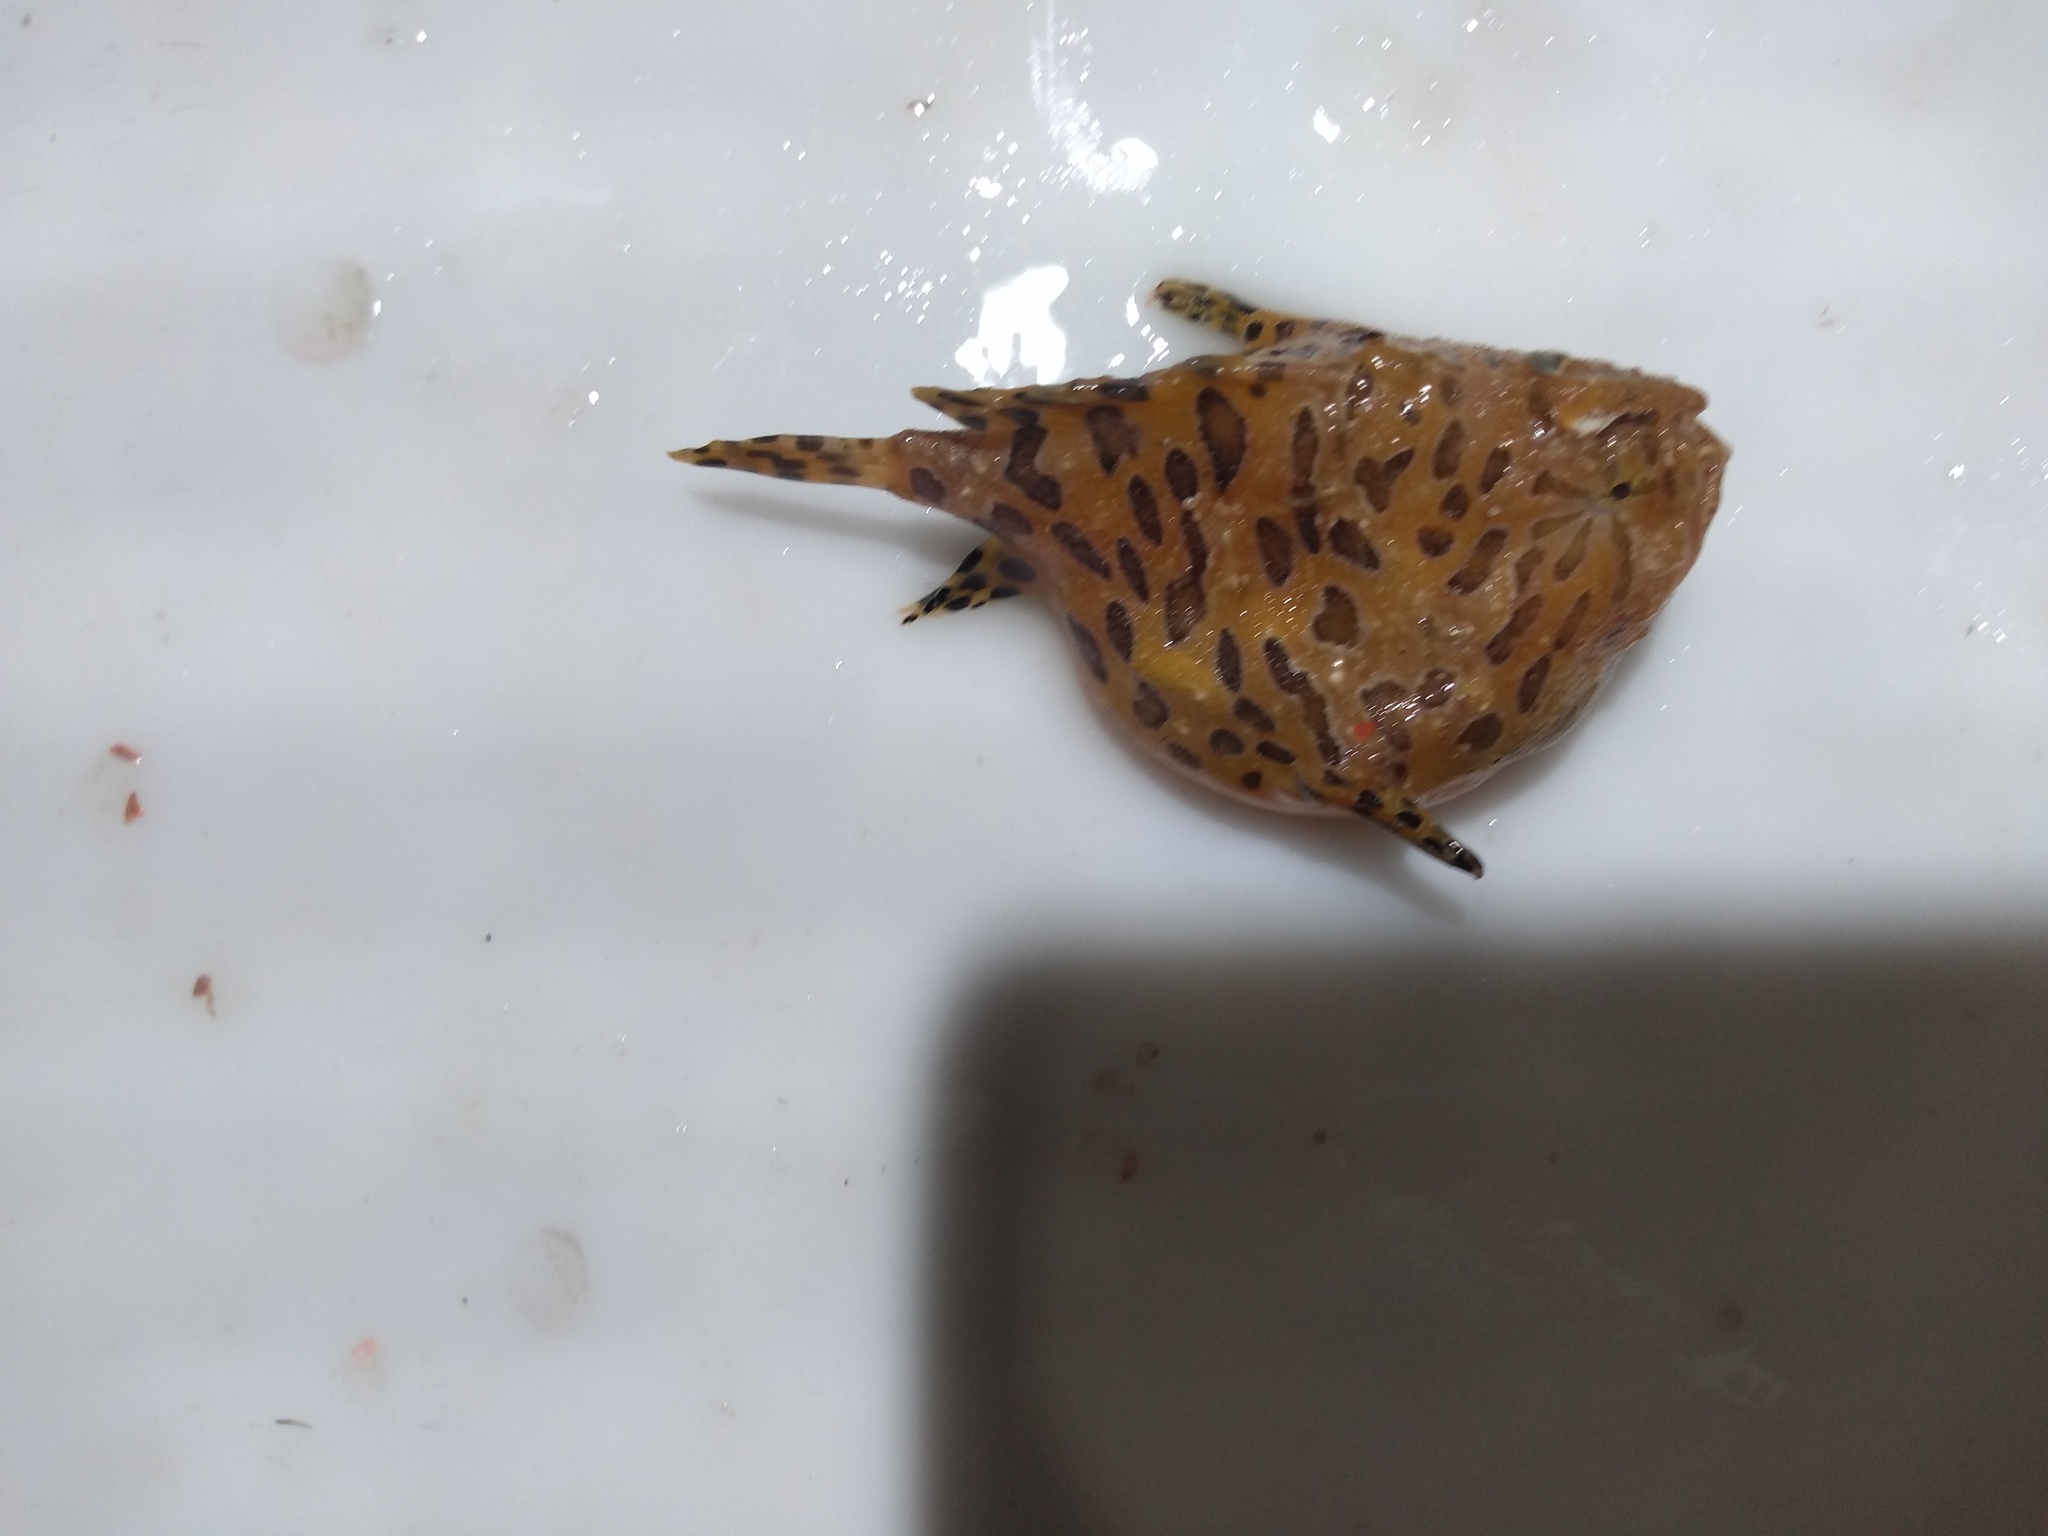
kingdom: Animalia
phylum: Chordata
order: Lophiiformes
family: Antennariidae
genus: Antennarius
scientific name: Antennarius striatus
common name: Striated frogfish
